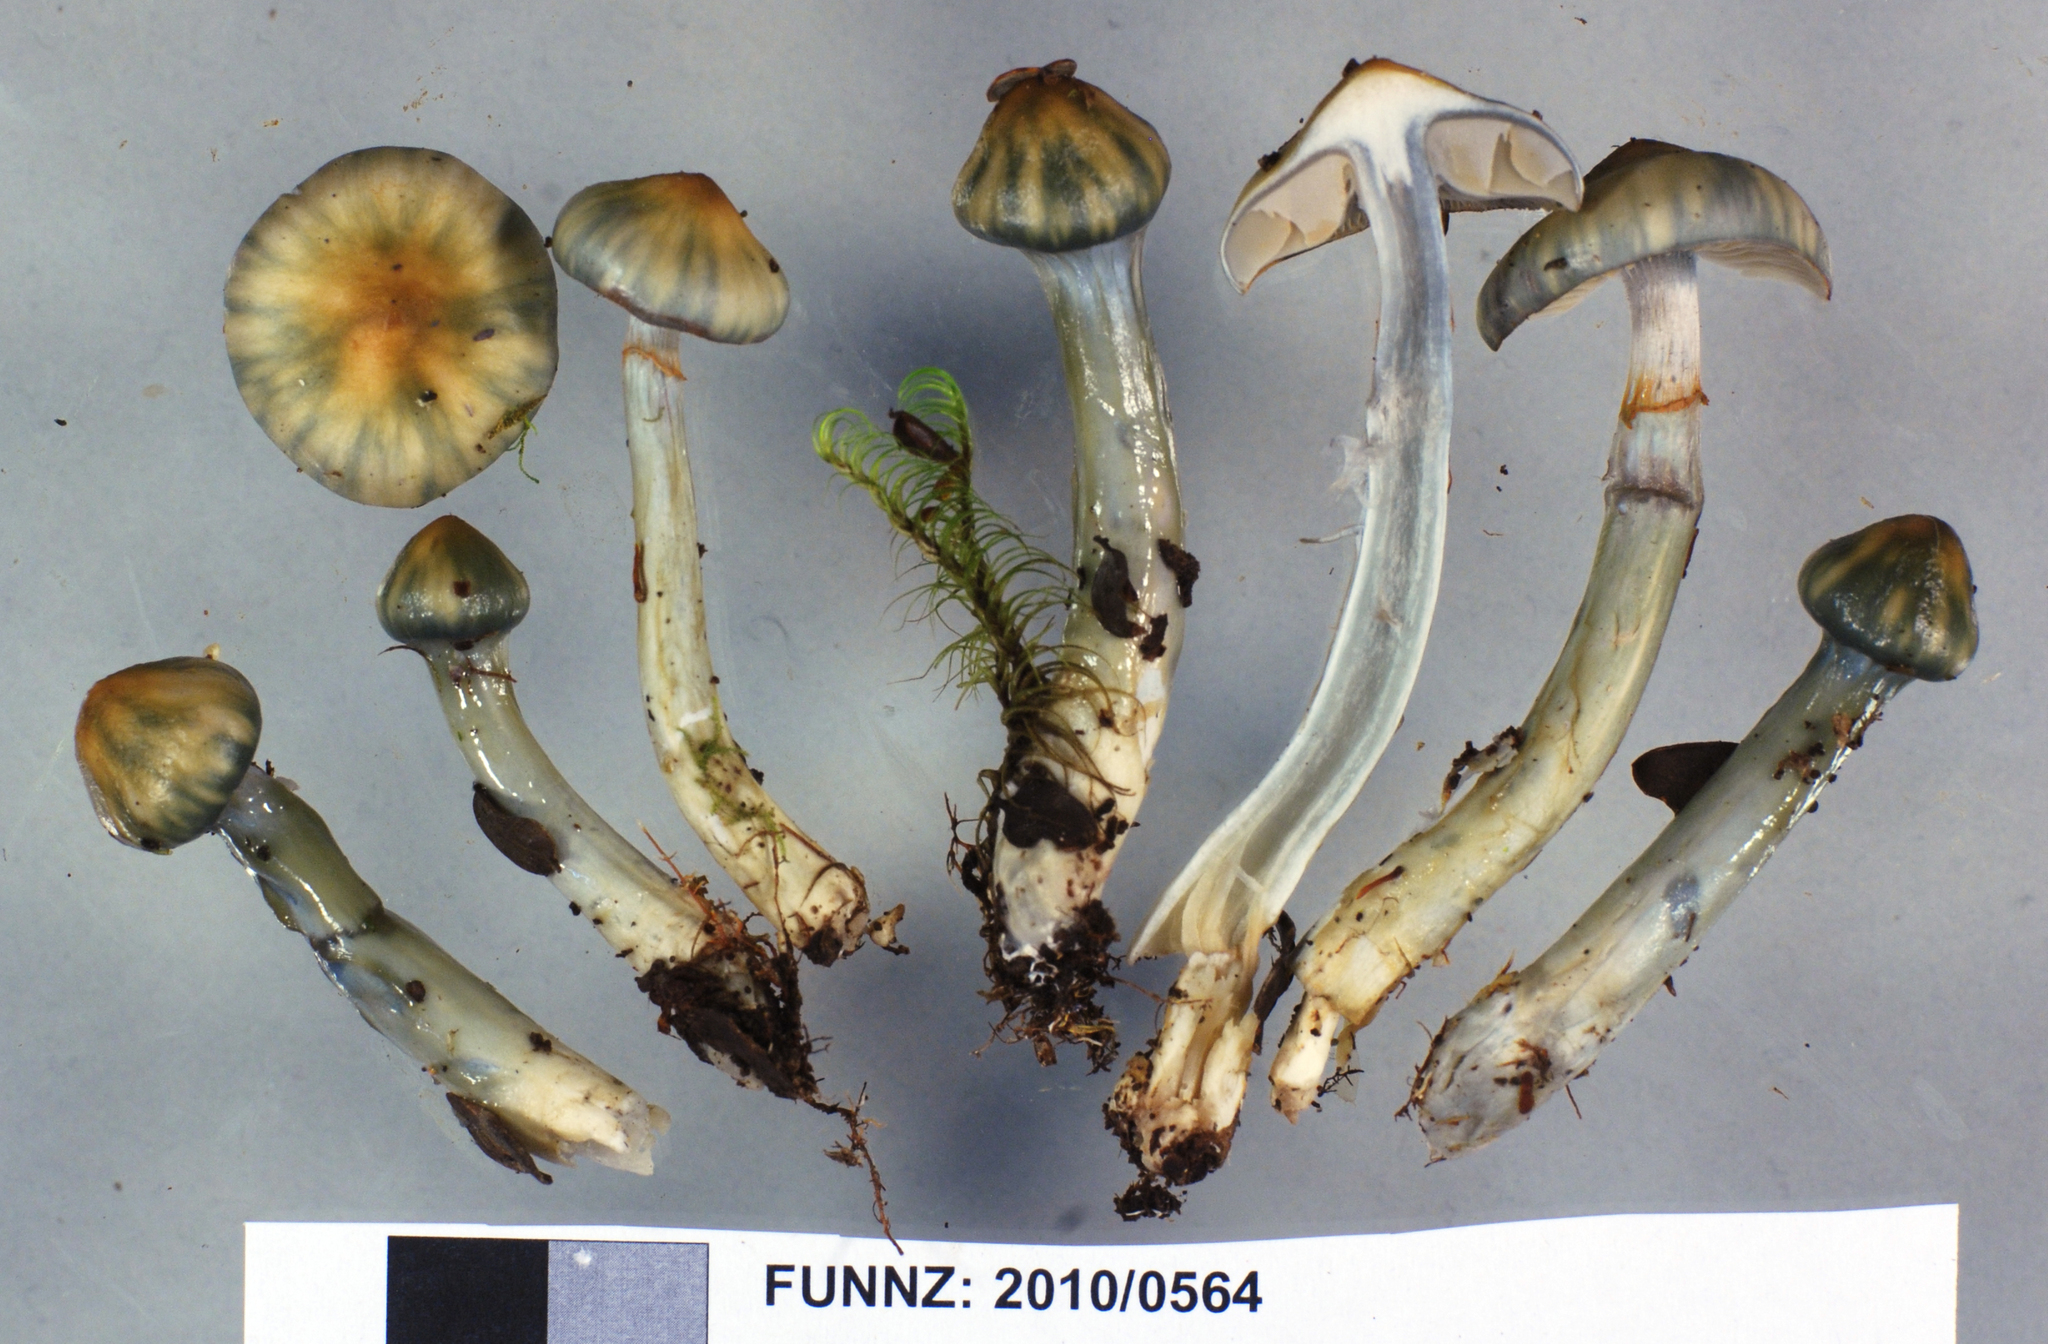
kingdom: Fungi
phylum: Basidiomycota
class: Agaricomycetes
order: Agaricales
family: Cortinariaceae
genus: Cortinarius
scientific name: Cortinarius aerugineoconicus
